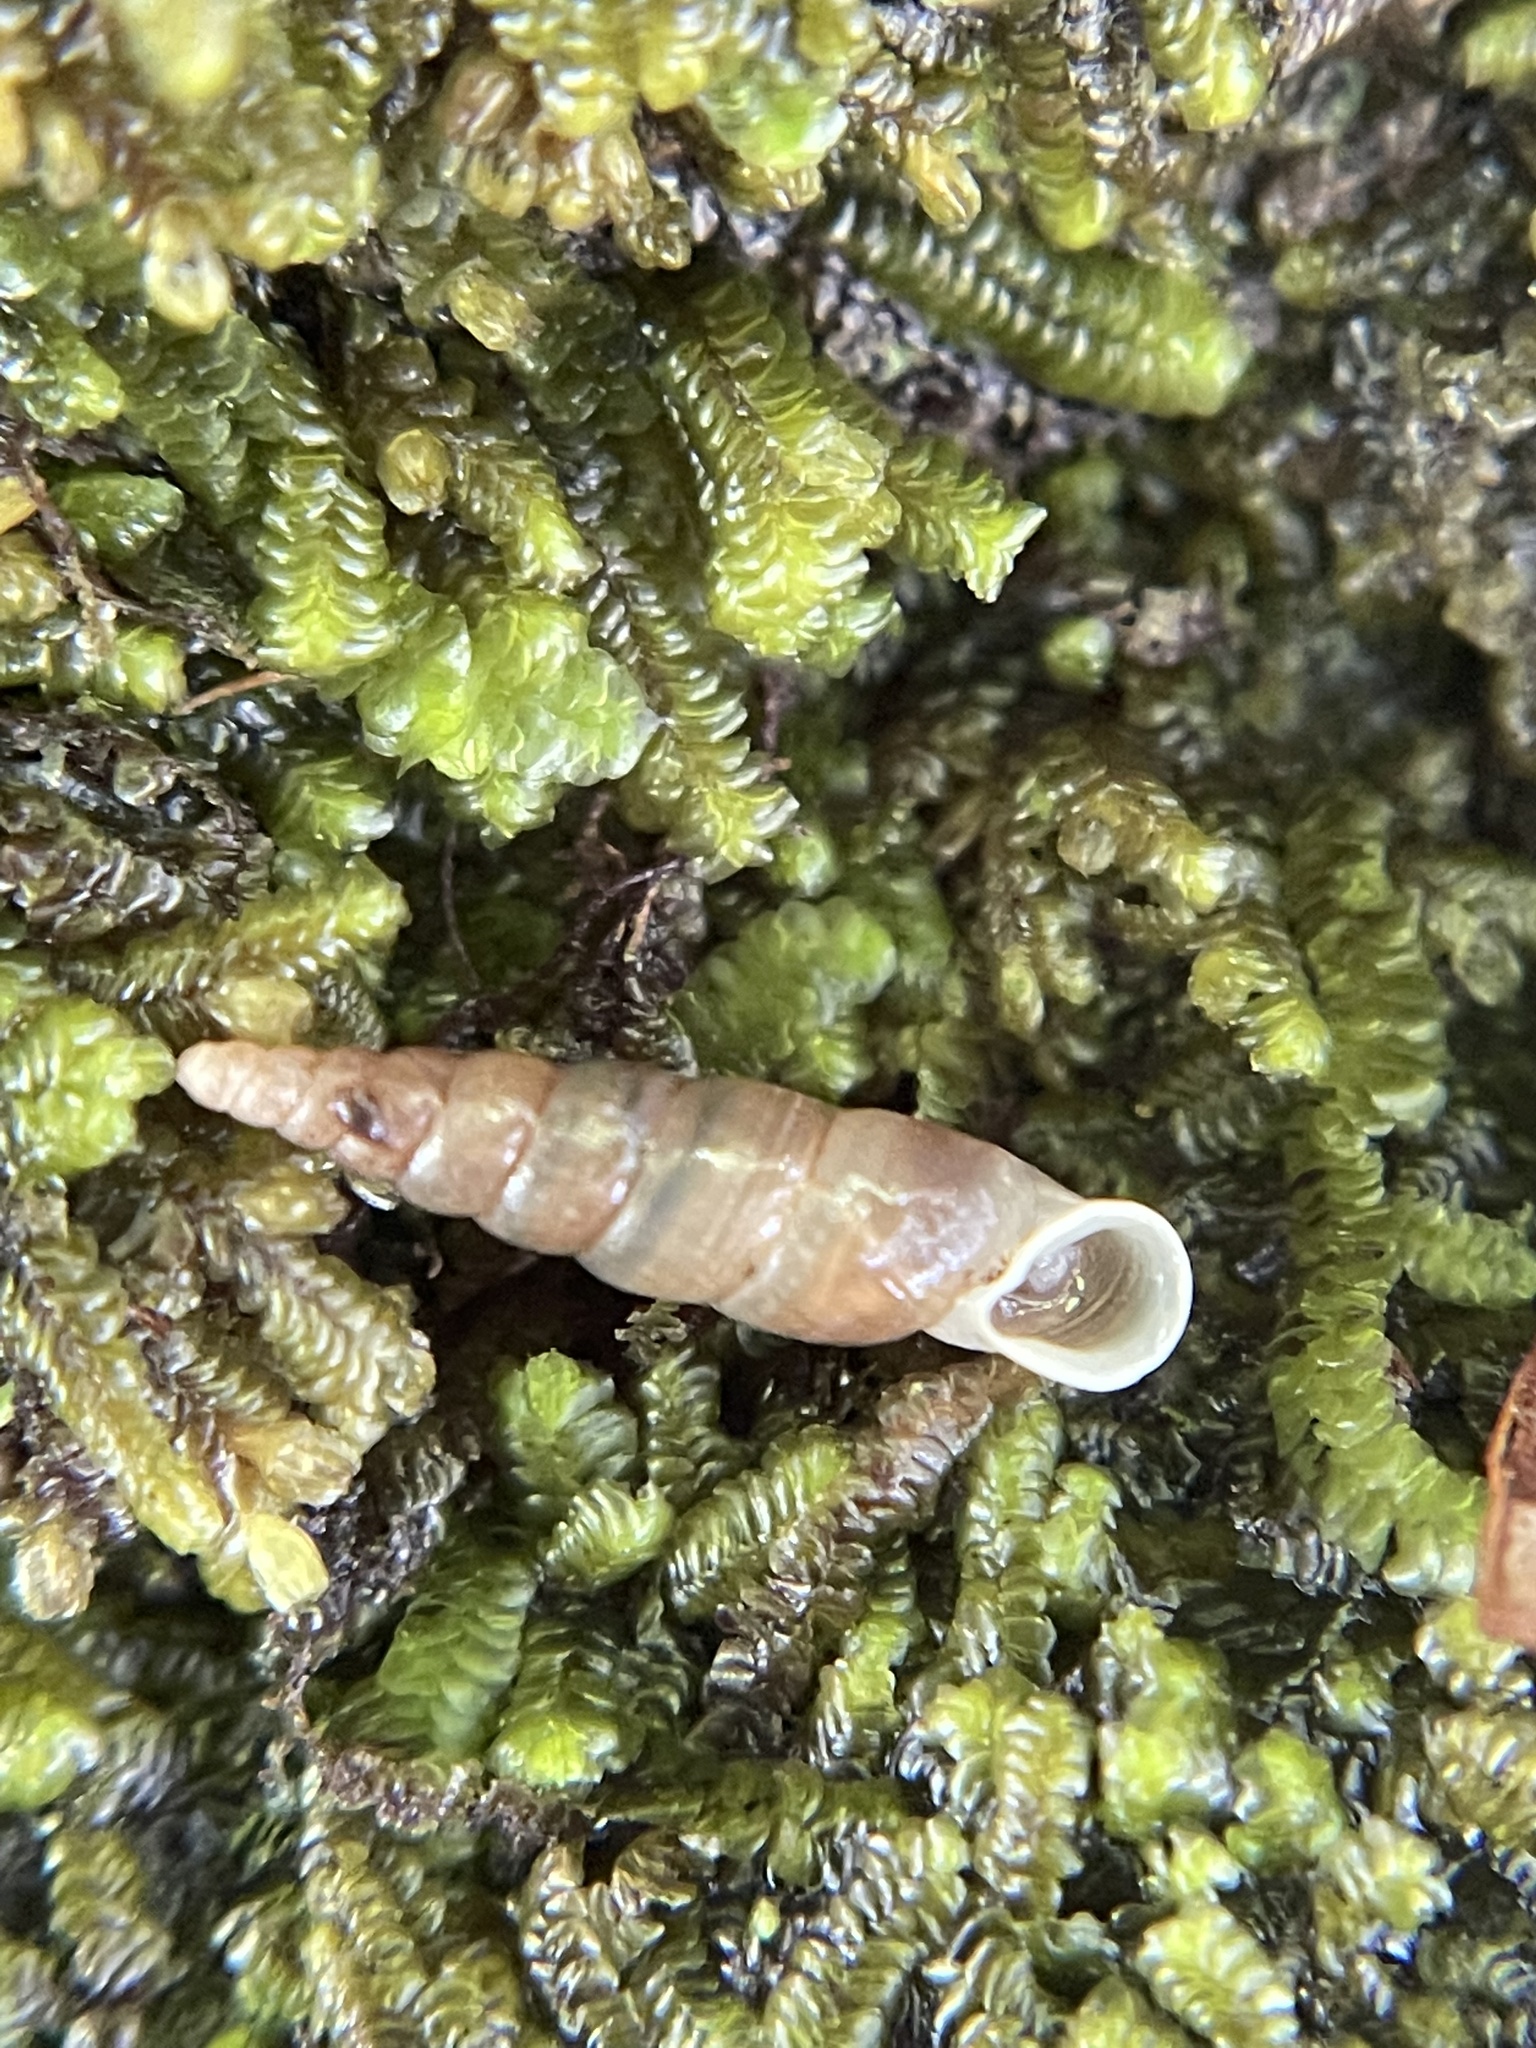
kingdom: Animalia
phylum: Mollusca
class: Gastropoda
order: Stylommatophora
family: Clausiliidae
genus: Tauphaedusa
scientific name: Tauphaedusa tau
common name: Snail
